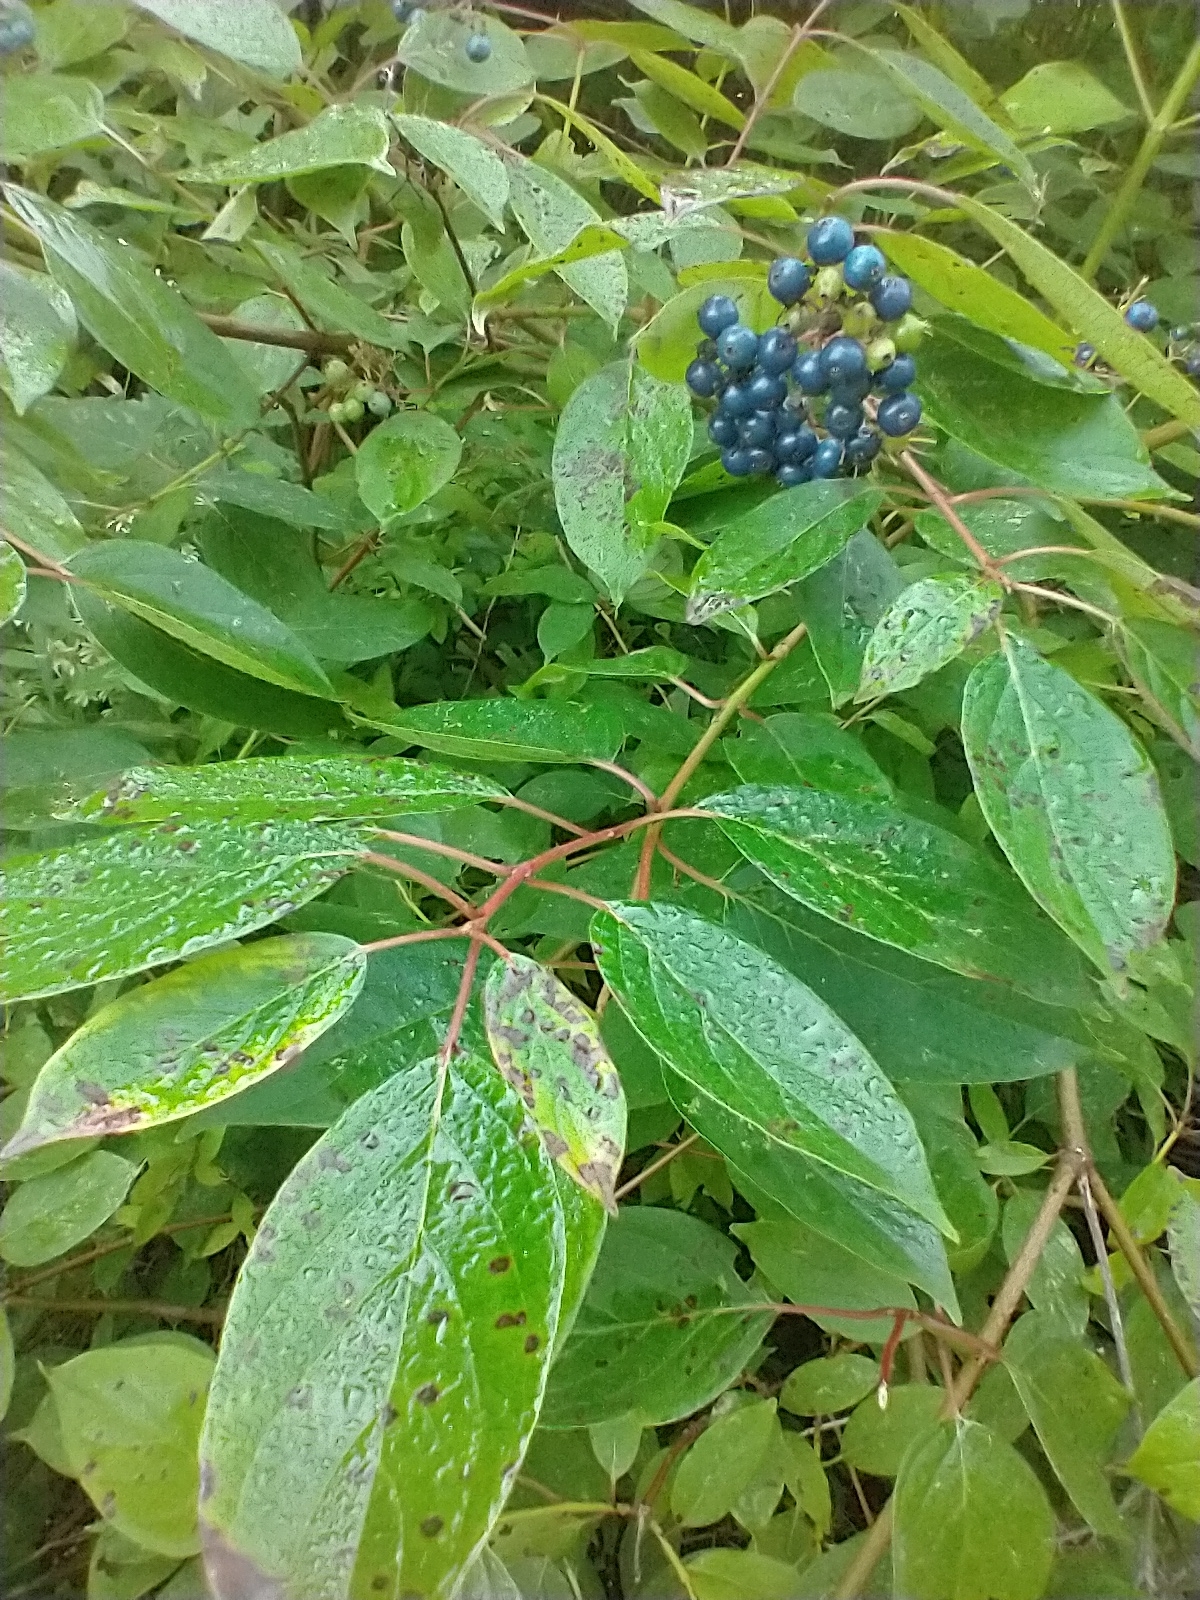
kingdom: Plantae
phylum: Tracheophyta
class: Magnoliopsida
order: Cornales
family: Cornaceae
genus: Cornus
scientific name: Cornus amomum
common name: Silky dogwood
